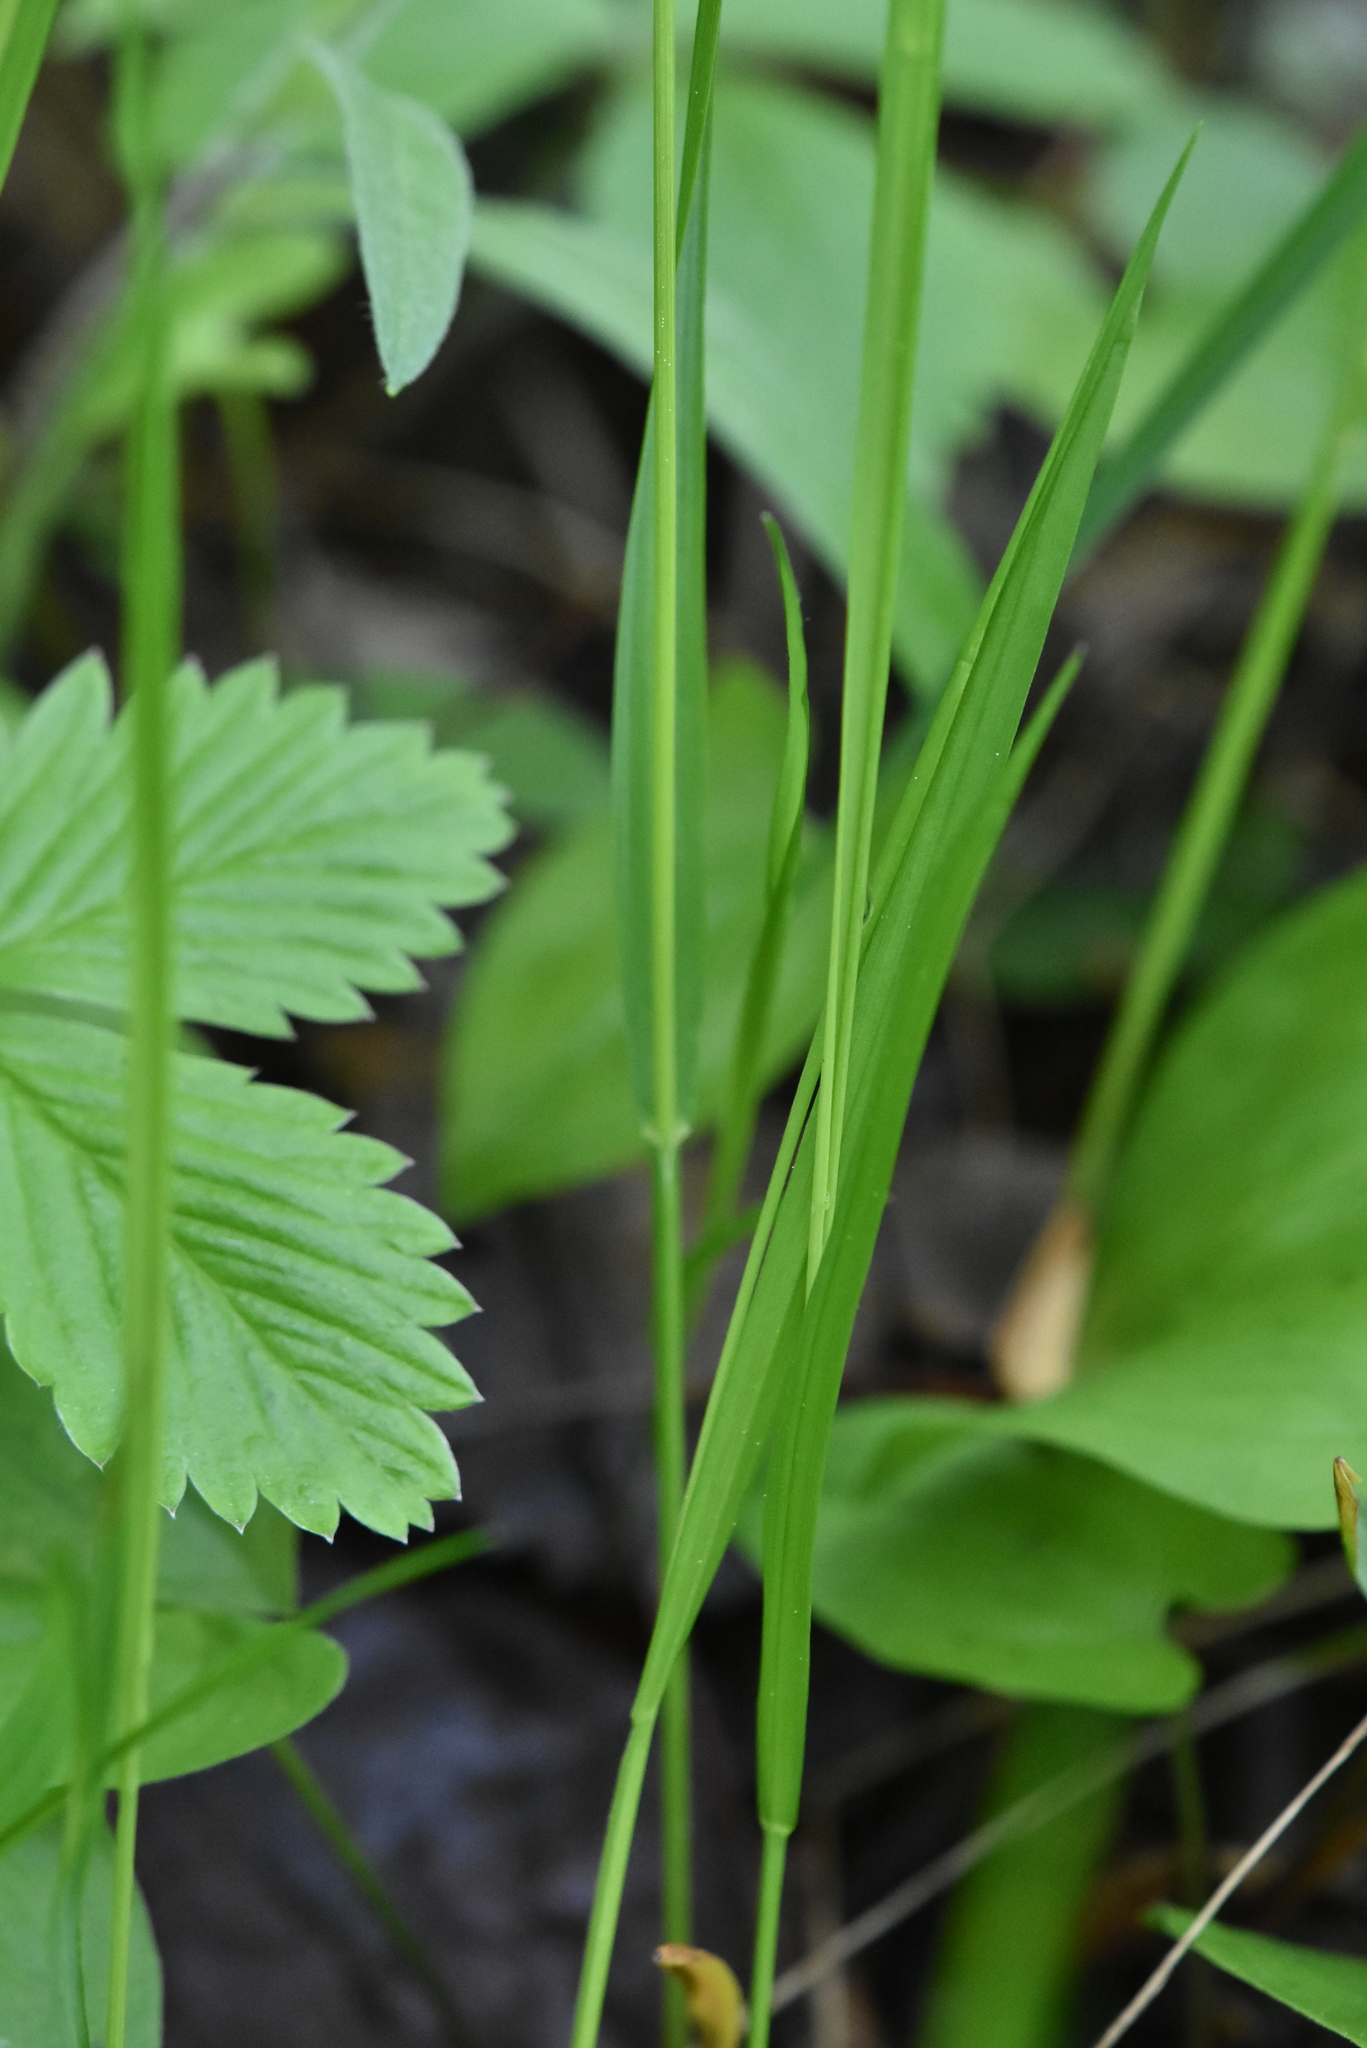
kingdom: Plantae
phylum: Tracheophyta
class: Liliopsida
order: Poales
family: Poaceae
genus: Melica
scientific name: Melica nutans
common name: Mountain melick
